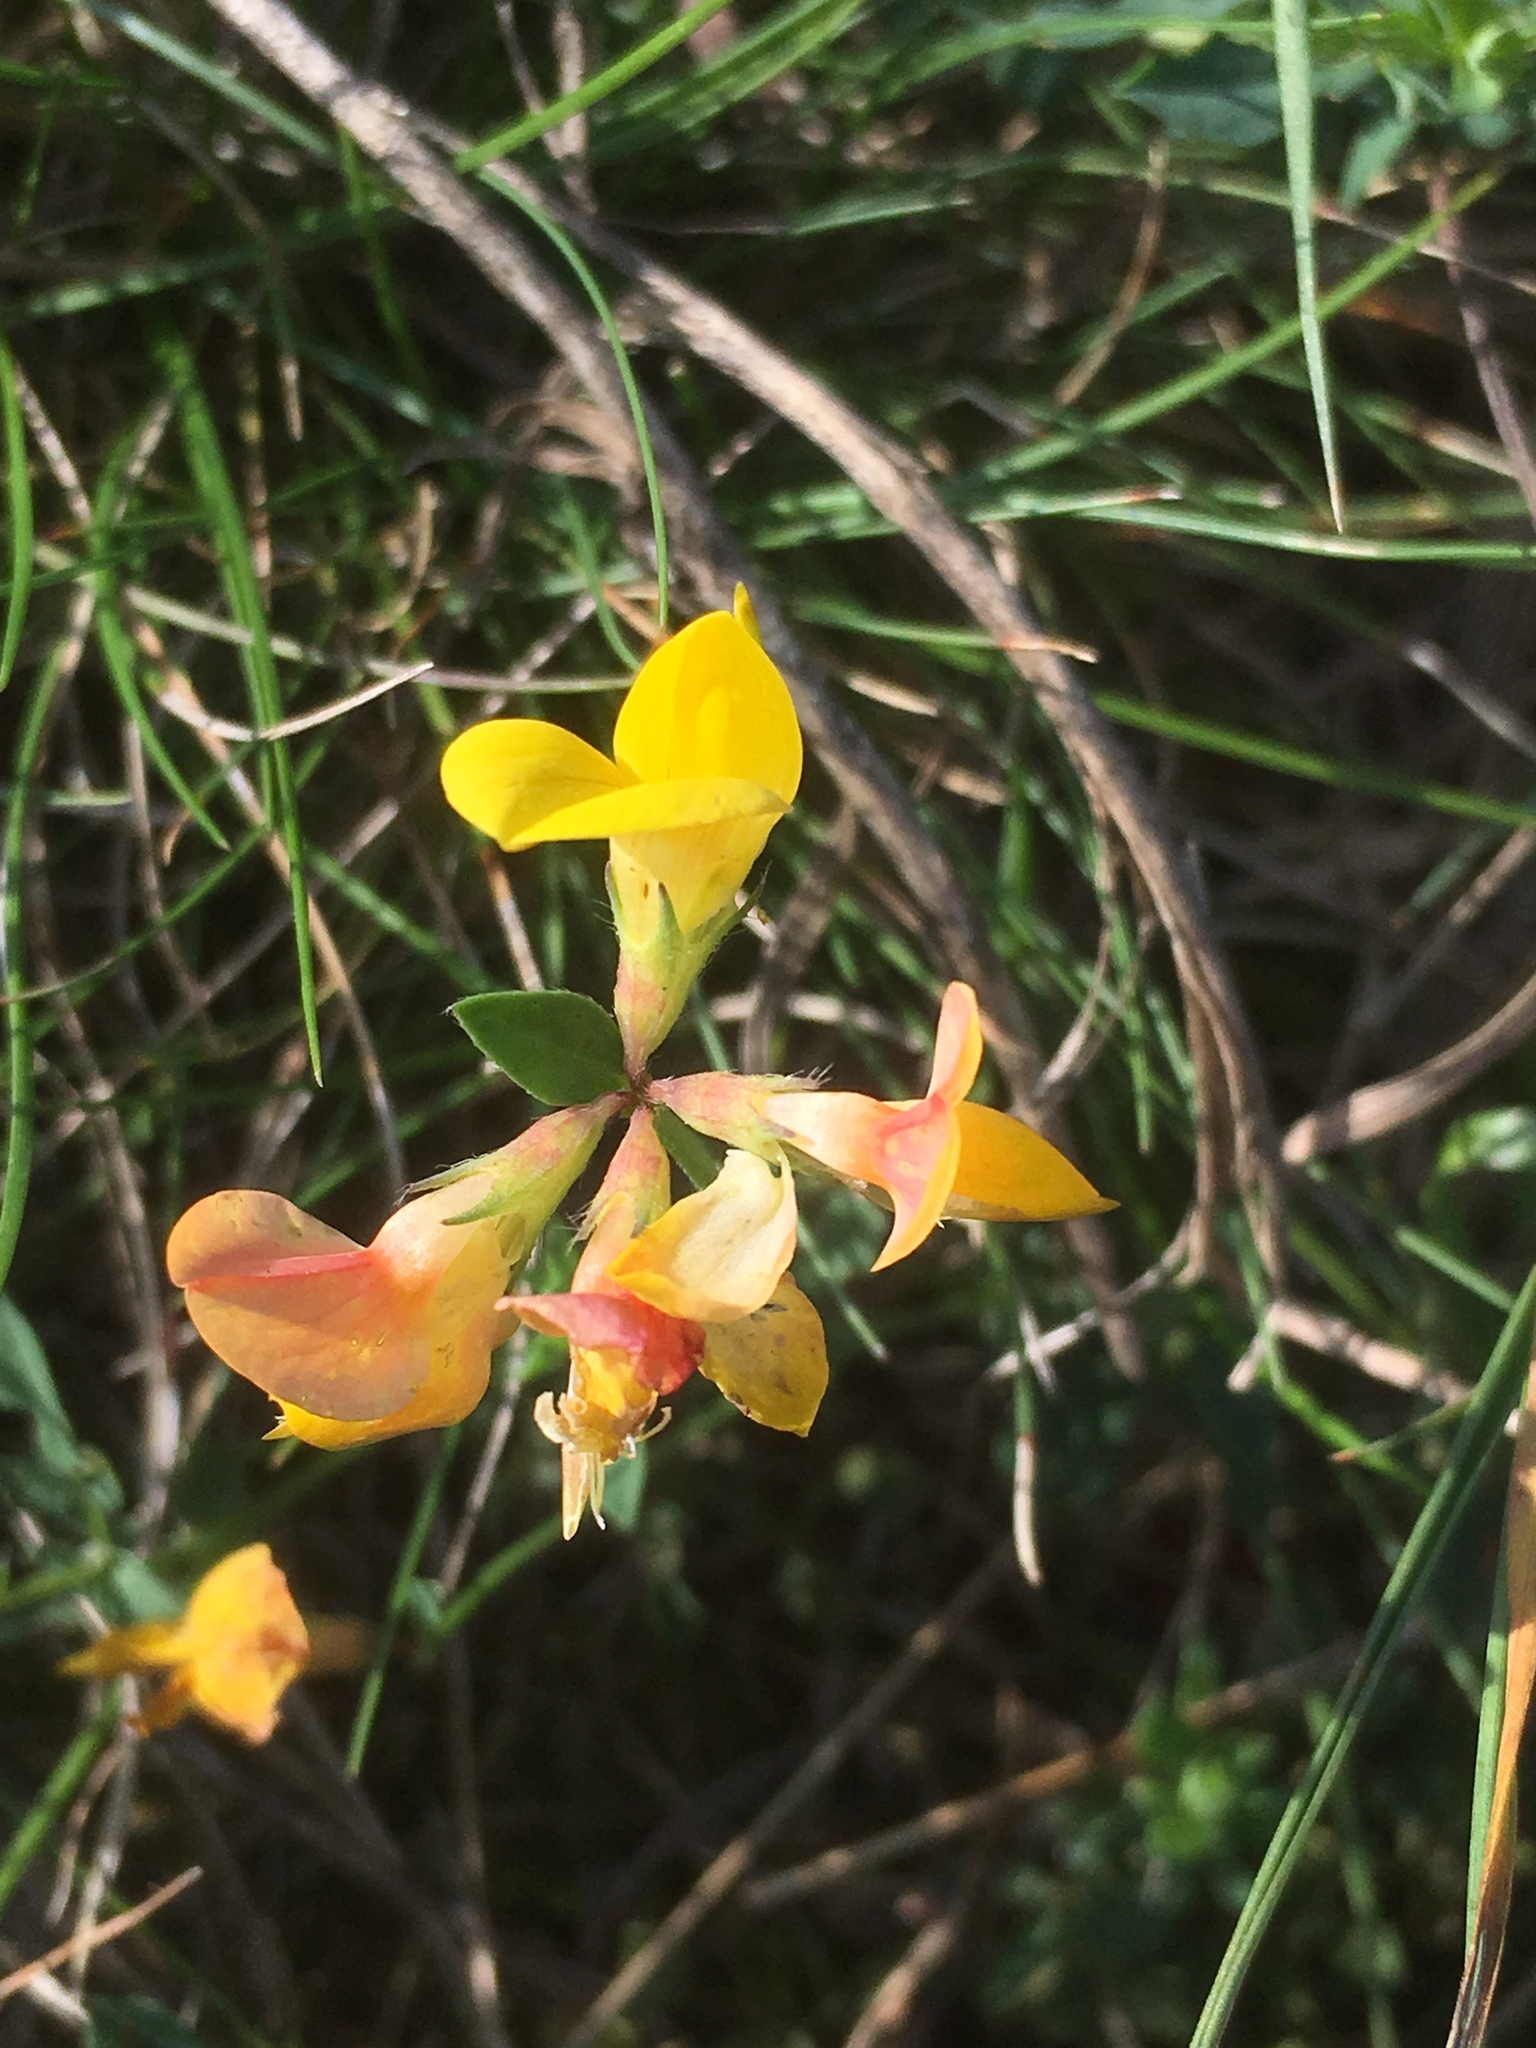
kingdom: Plantae
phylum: Tracheophyta
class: Magnoliopsida
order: Fabales
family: Fabaceae
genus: Lotus
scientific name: Lotus corniculatus
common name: Common bird's-foot-trefoil
